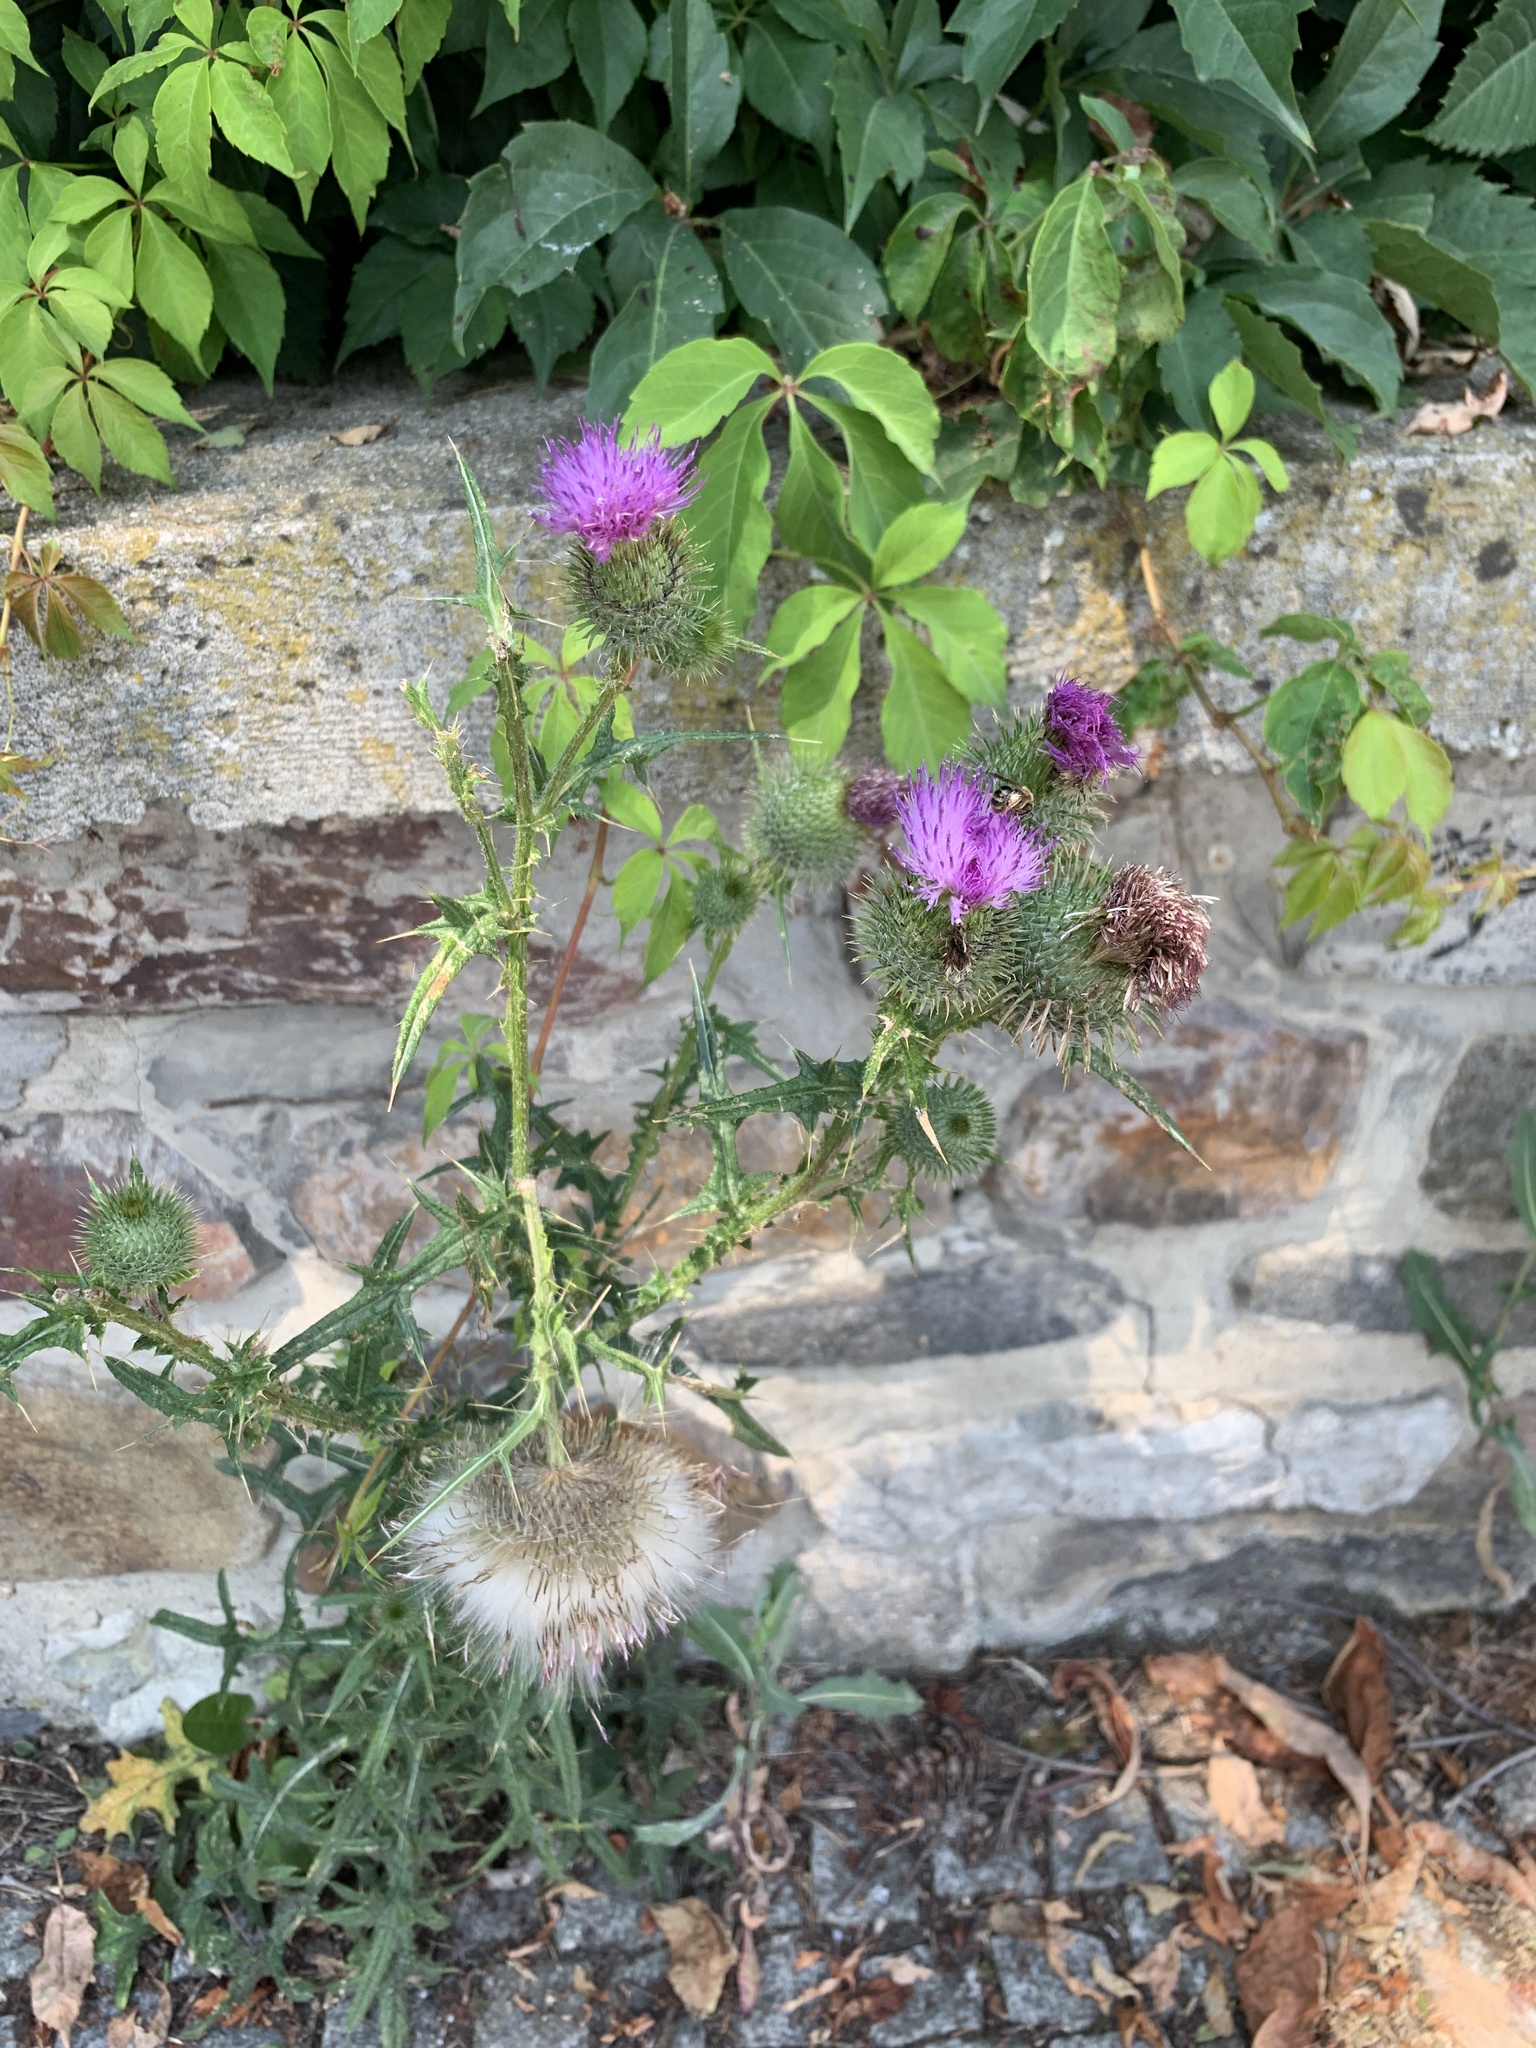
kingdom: Plantae
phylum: Tracheophyta
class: Magnoliopsida
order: Asterales
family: Asteraceae
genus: Cirsium
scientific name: Cirsium vulgare
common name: Bull thistle
